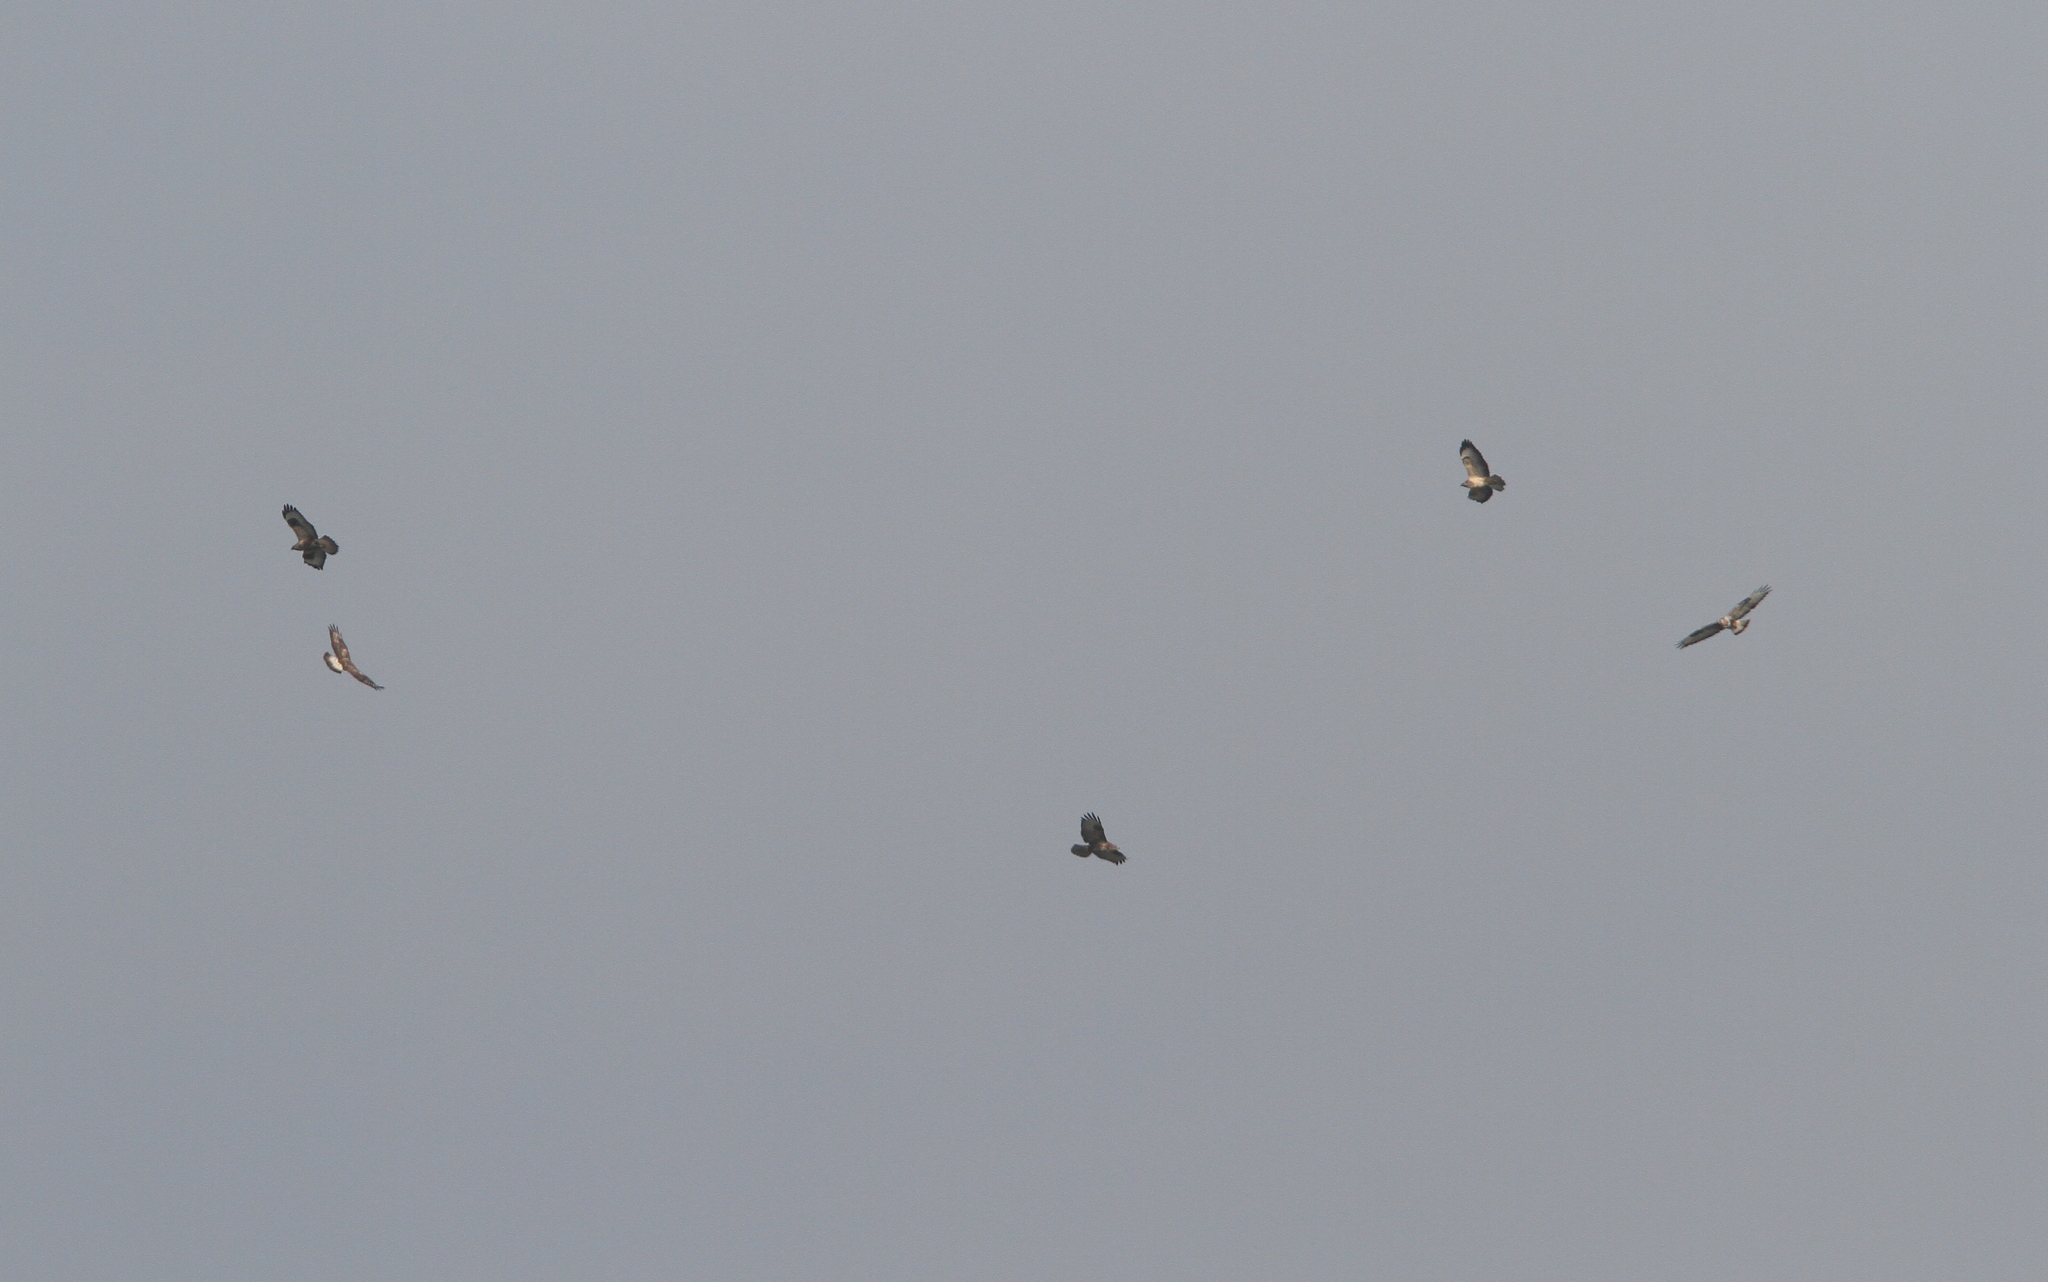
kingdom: Animalia
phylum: Chordata
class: Aves
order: Accipitriformes
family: Accipitridae
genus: Buteo
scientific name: Buteo lagopus
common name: Rough-legged buzzard
